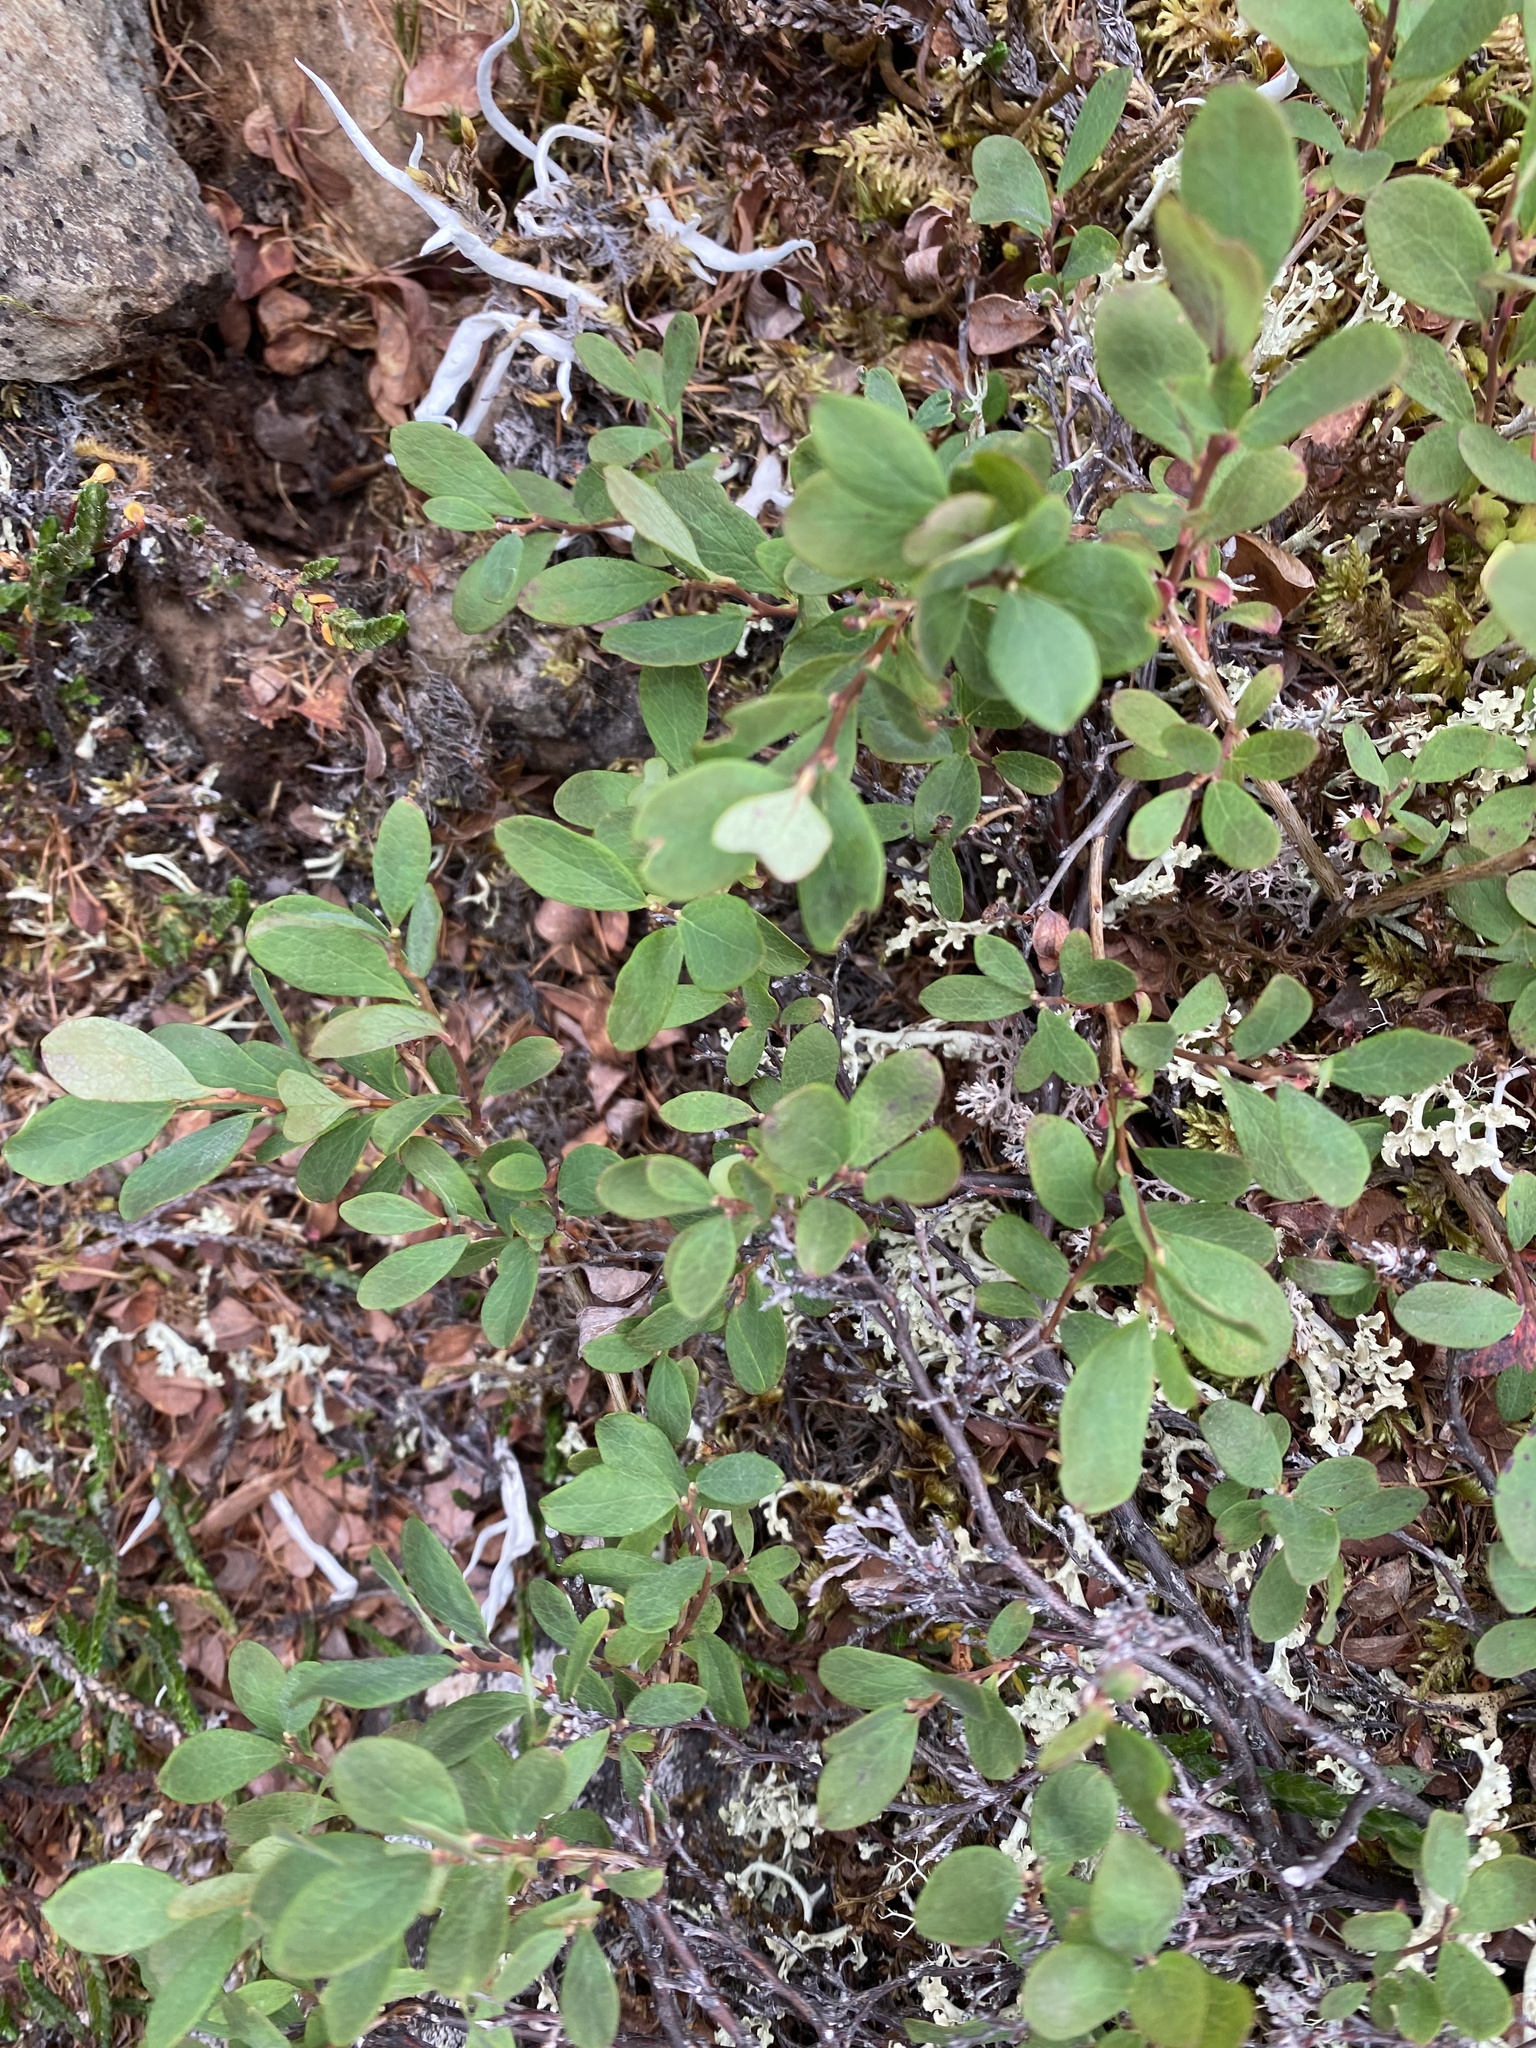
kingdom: Plantae
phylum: Tracheophyta
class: Magnoliopsida
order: Ericales
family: Ericaceae
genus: Vaccinium
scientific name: Vaccinium uliginosum
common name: Bog bilberry
